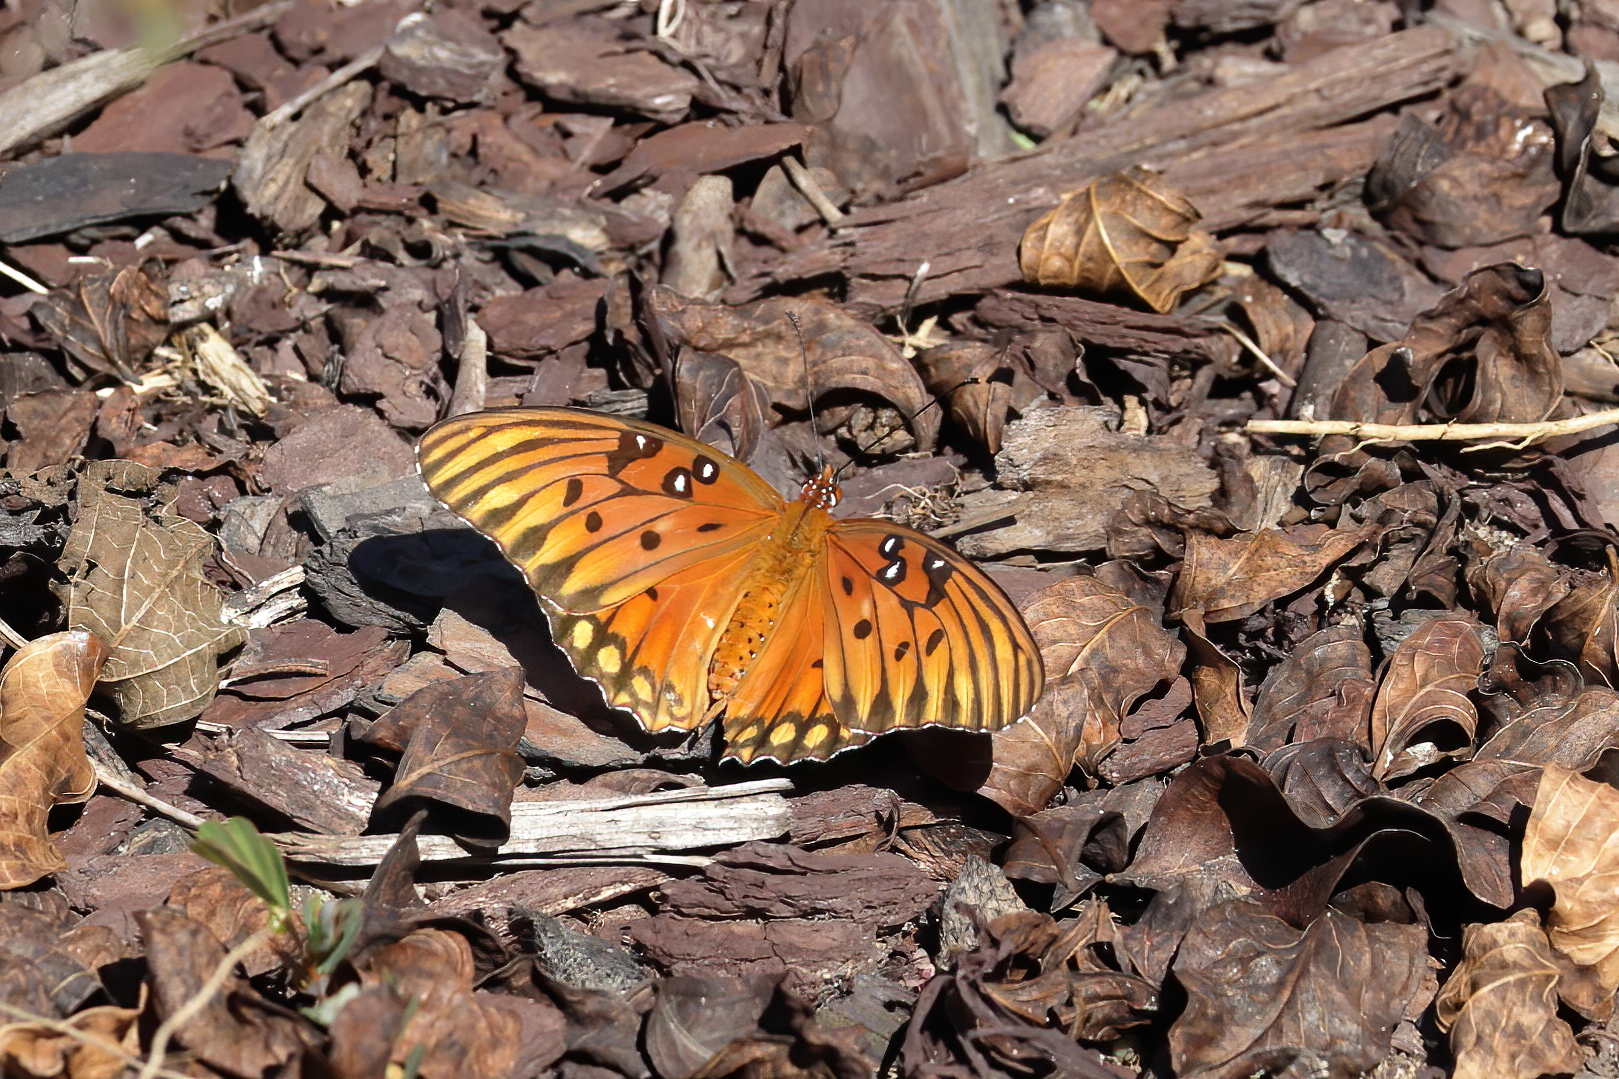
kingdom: Animalia
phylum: Arthropoda
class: Insecta
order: Lepidoptera
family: Nymphalidae
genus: Dione
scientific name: Dione vanillae
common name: Gulf fritillary
